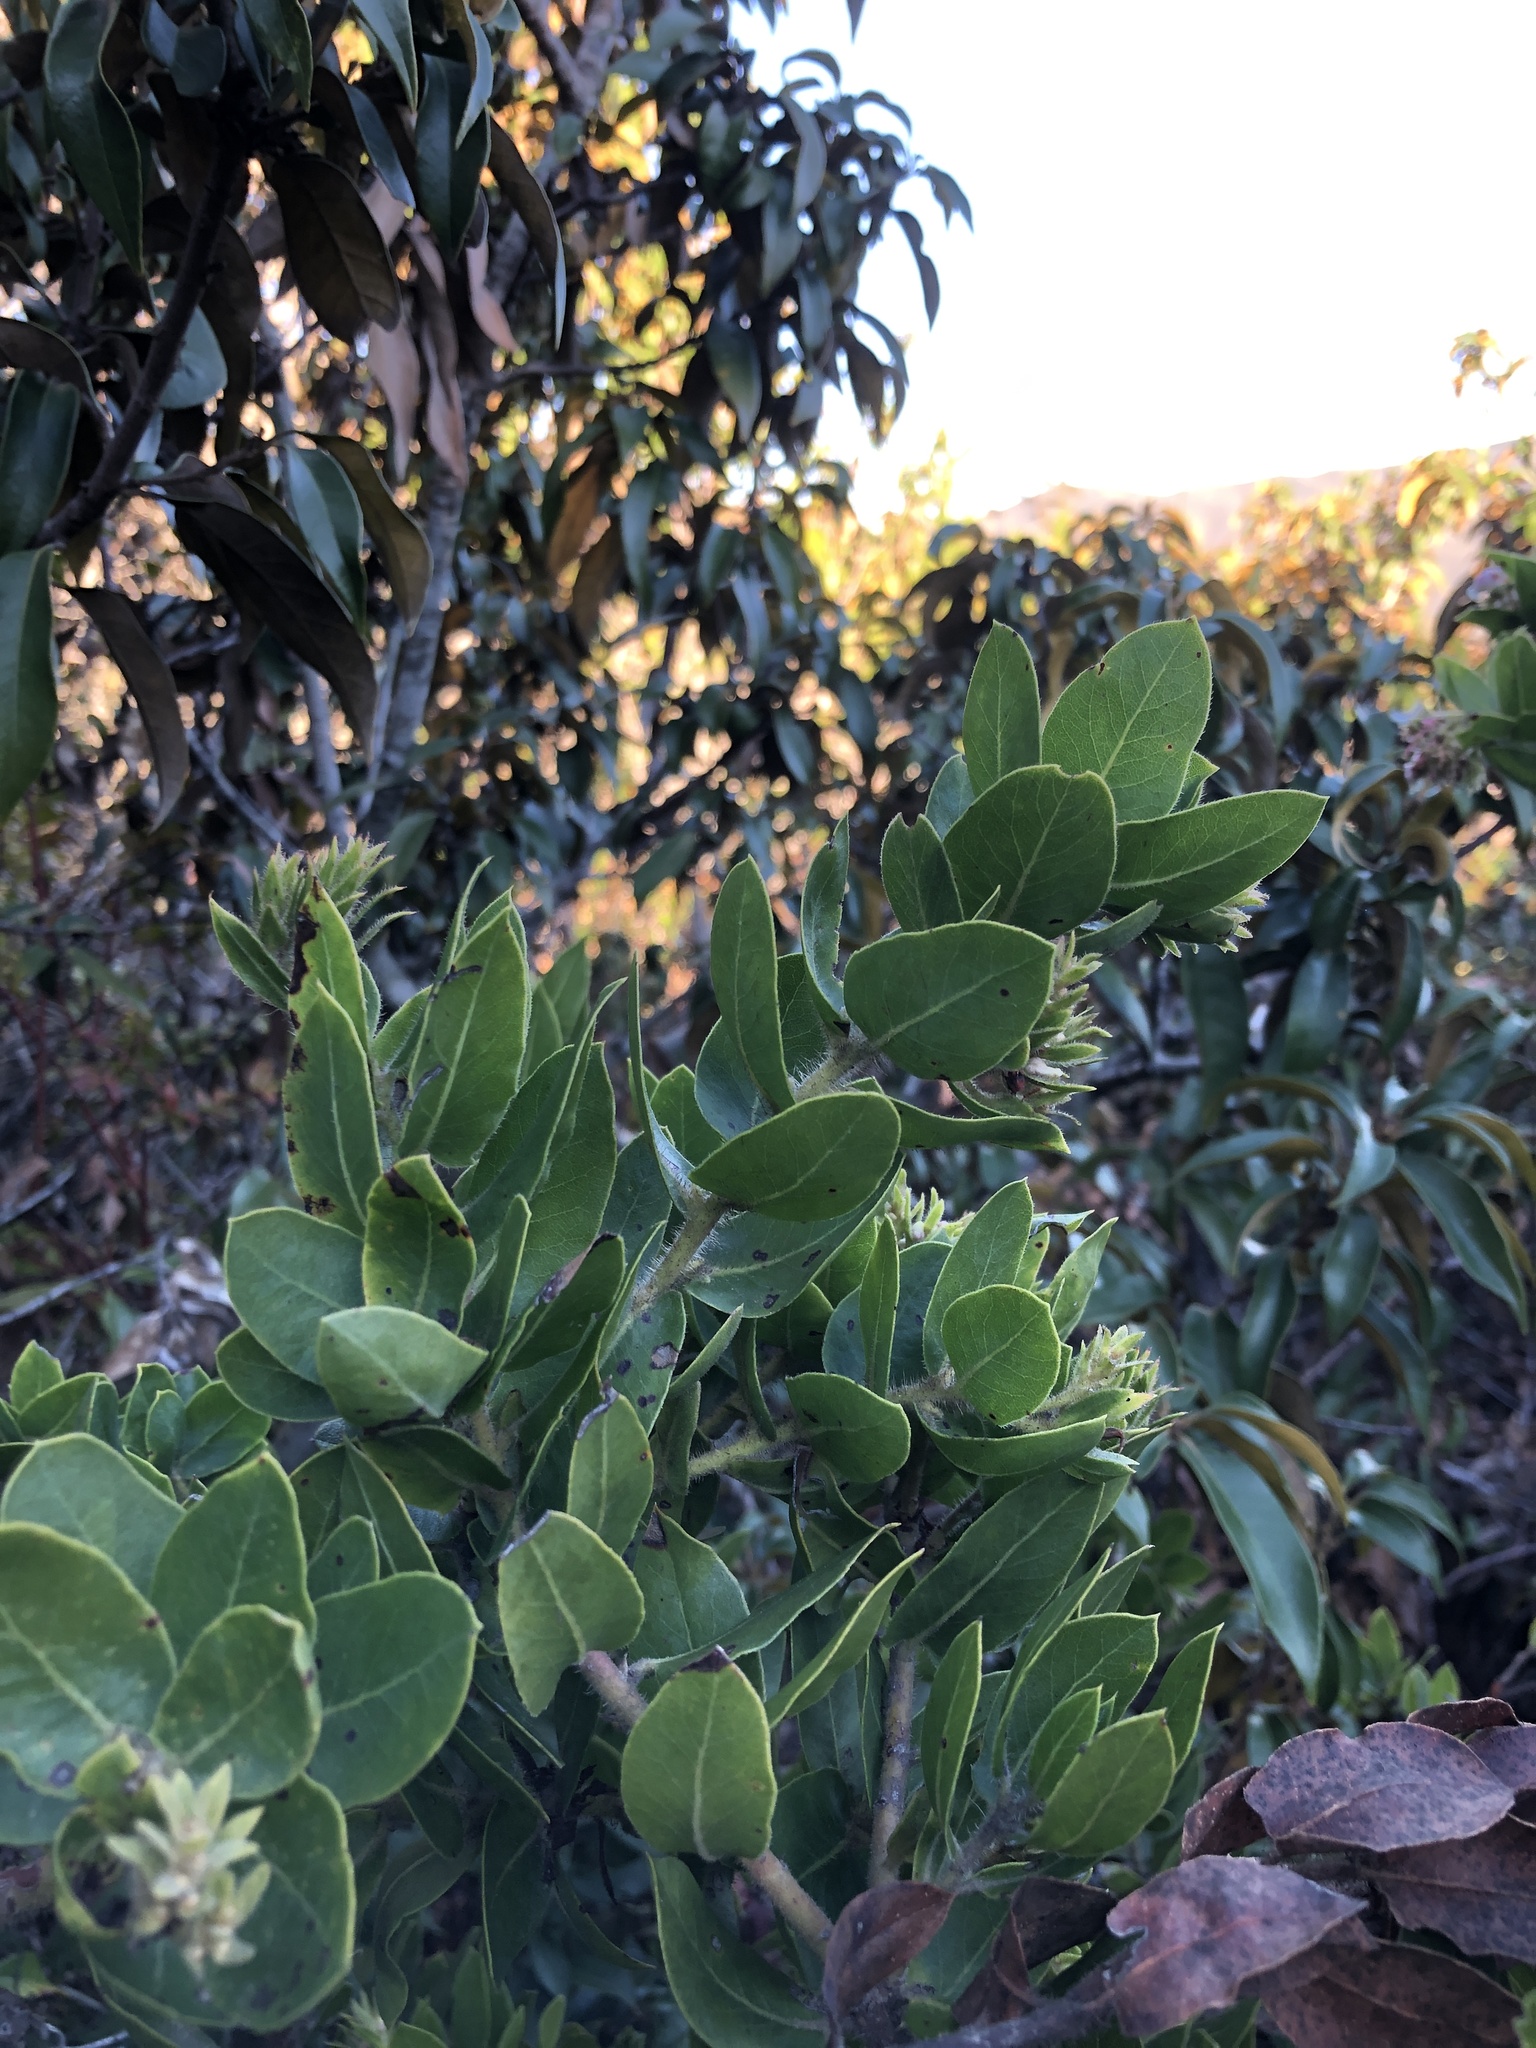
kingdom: Plantae
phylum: Tracheophyta
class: Magnoliopsida
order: Ericales
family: Ericaceae
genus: Arctostaphylos
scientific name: Arctostaphylos montaraensis
